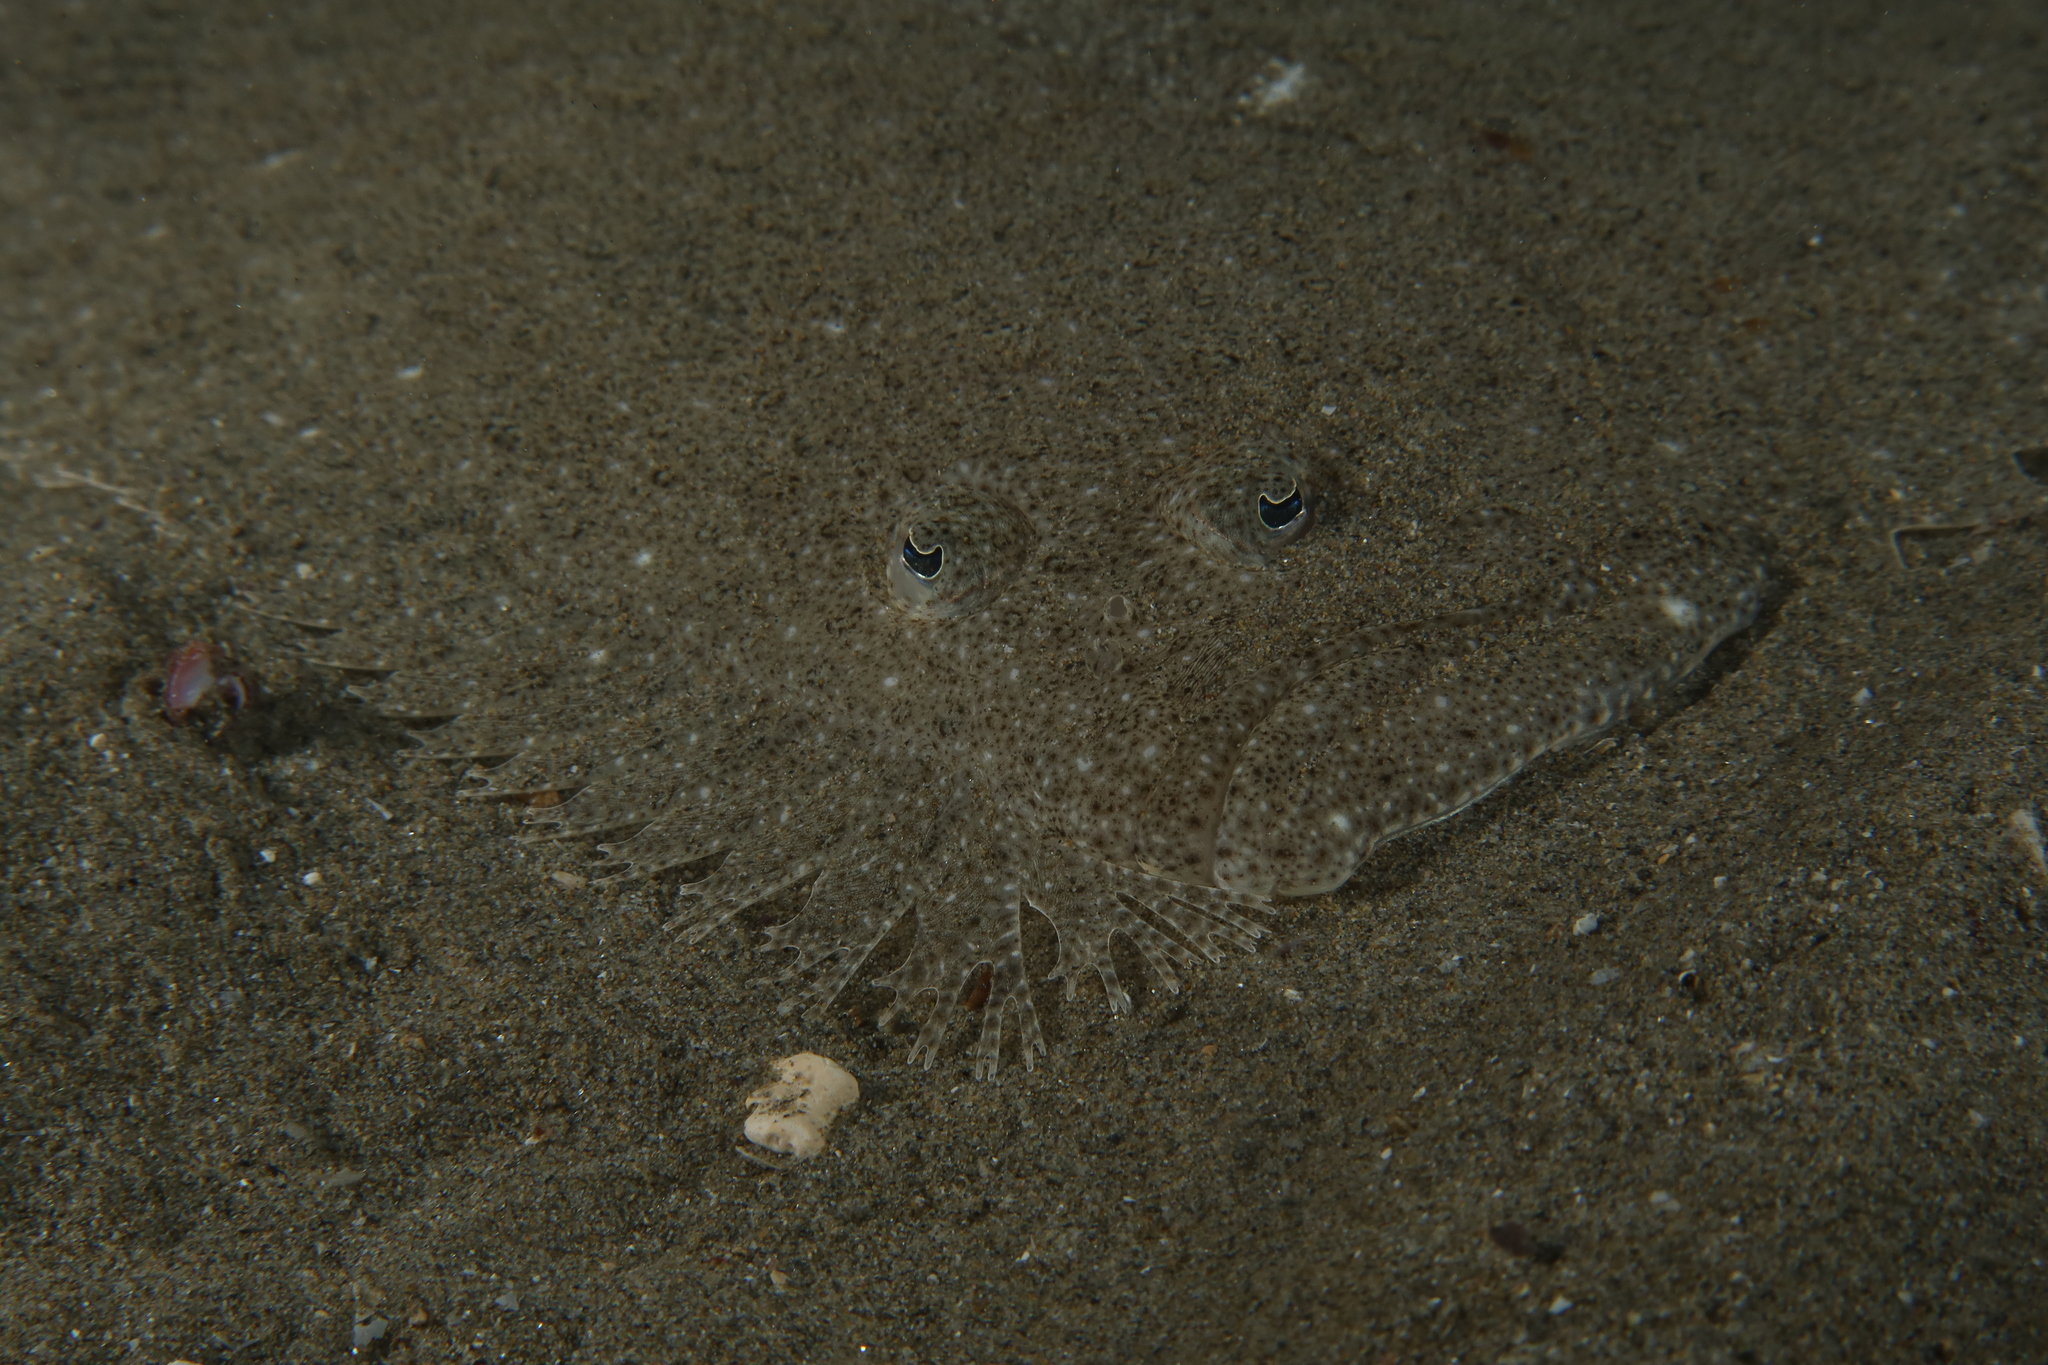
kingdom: Animalia
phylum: Chordata
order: Pleuronectiformes
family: Scophthalmidae
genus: Scophthalmus
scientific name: Scophthalmus rhombus
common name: Brill
